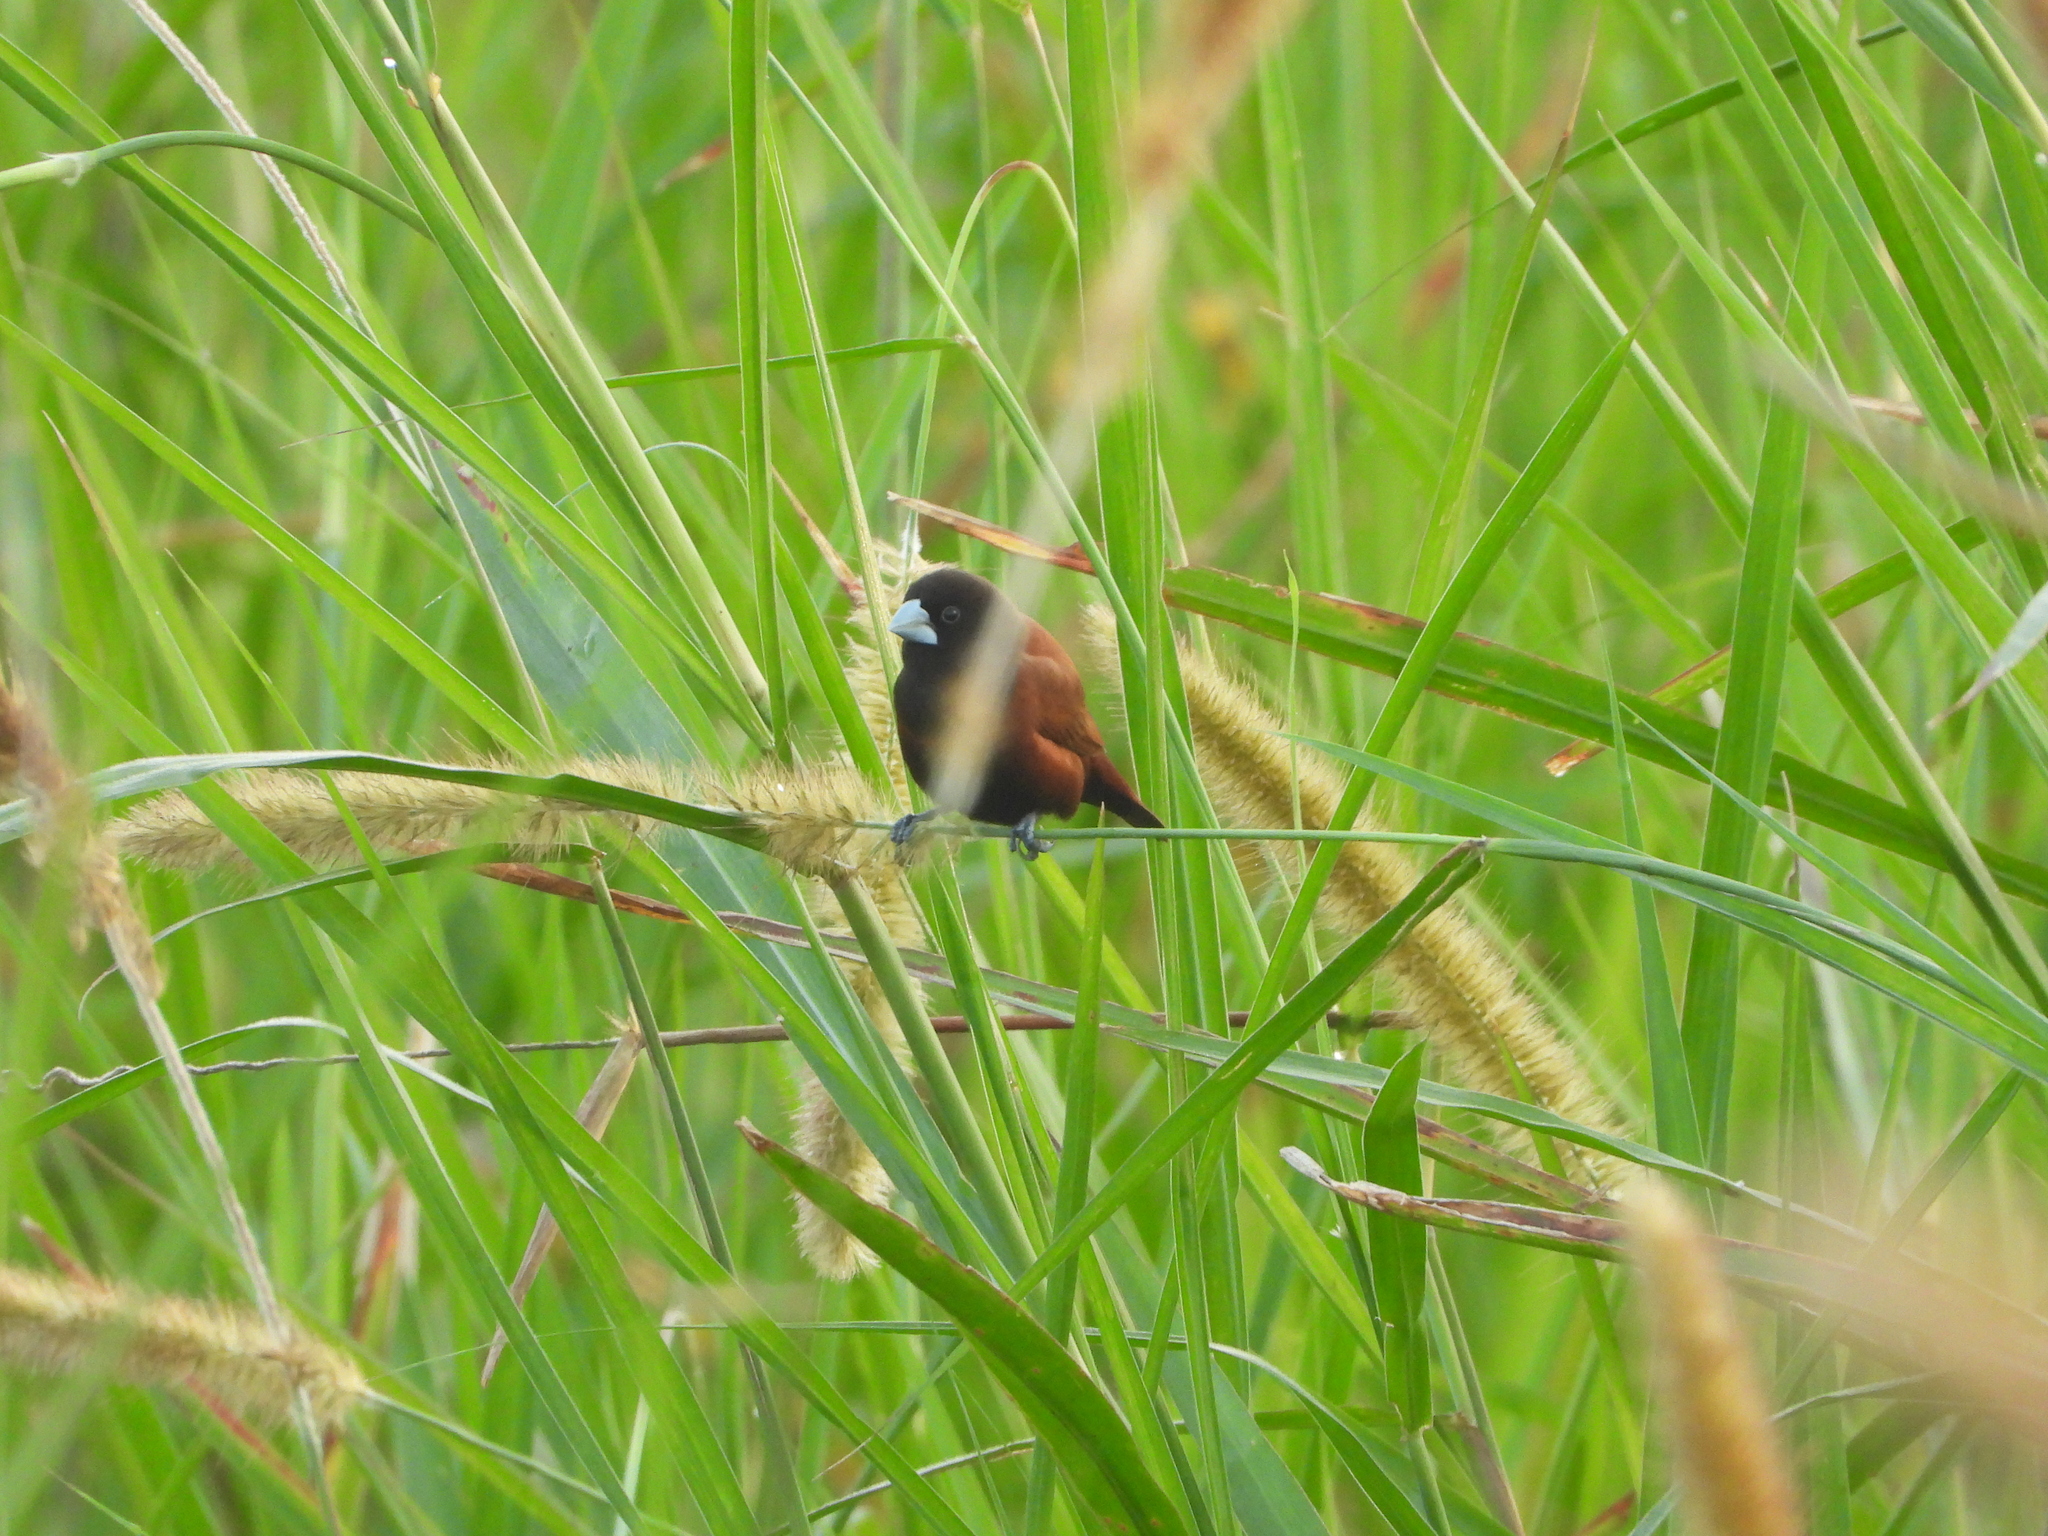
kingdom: Animalia
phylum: Chordata
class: Aves
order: Passeriformes
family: Estrildidae
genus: Lonchura
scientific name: Lonchura atricapilla
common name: Chestnut munia
